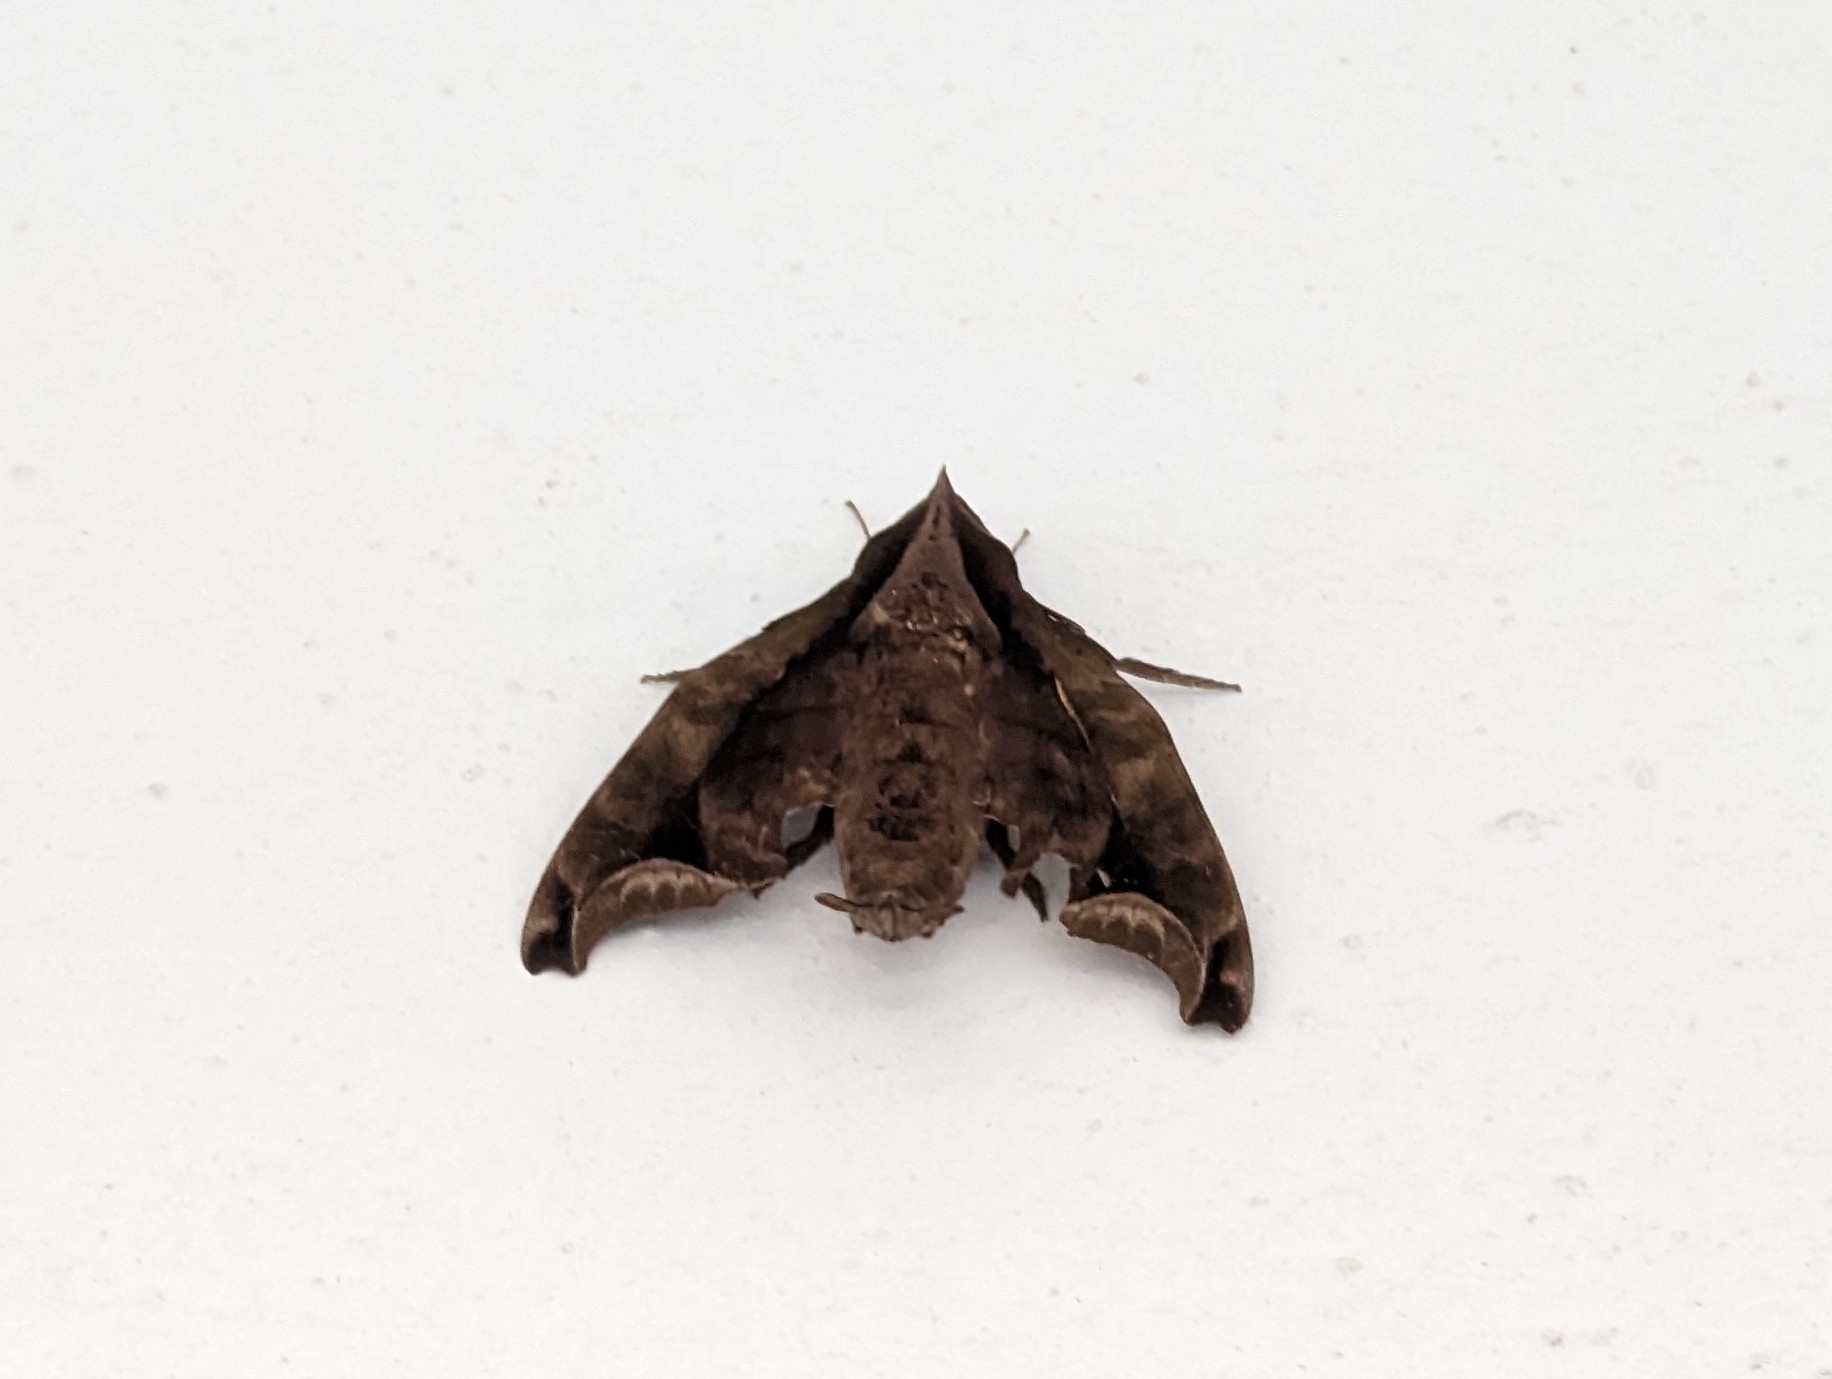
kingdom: Animalia
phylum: Arthropoda
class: Insecta
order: Lepidoptera
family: Sphingidae
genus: Enyo
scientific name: Enyo gorgon
